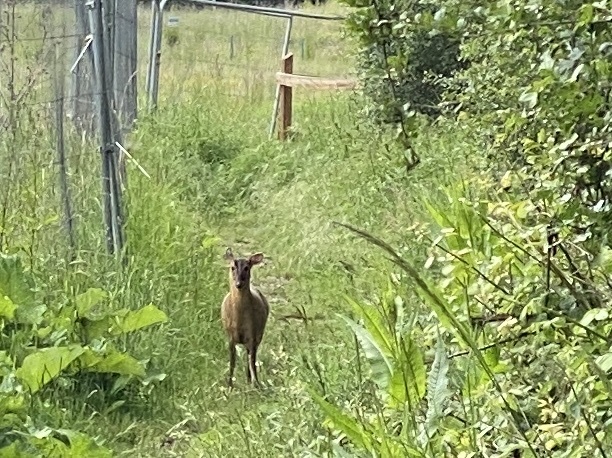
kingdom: Animalia
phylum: Chordata
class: Mammalia
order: Artiodactyla
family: Cervidae
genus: Muntiacus
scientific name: Muntiacus reevesi
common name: Reeves' muntjac
